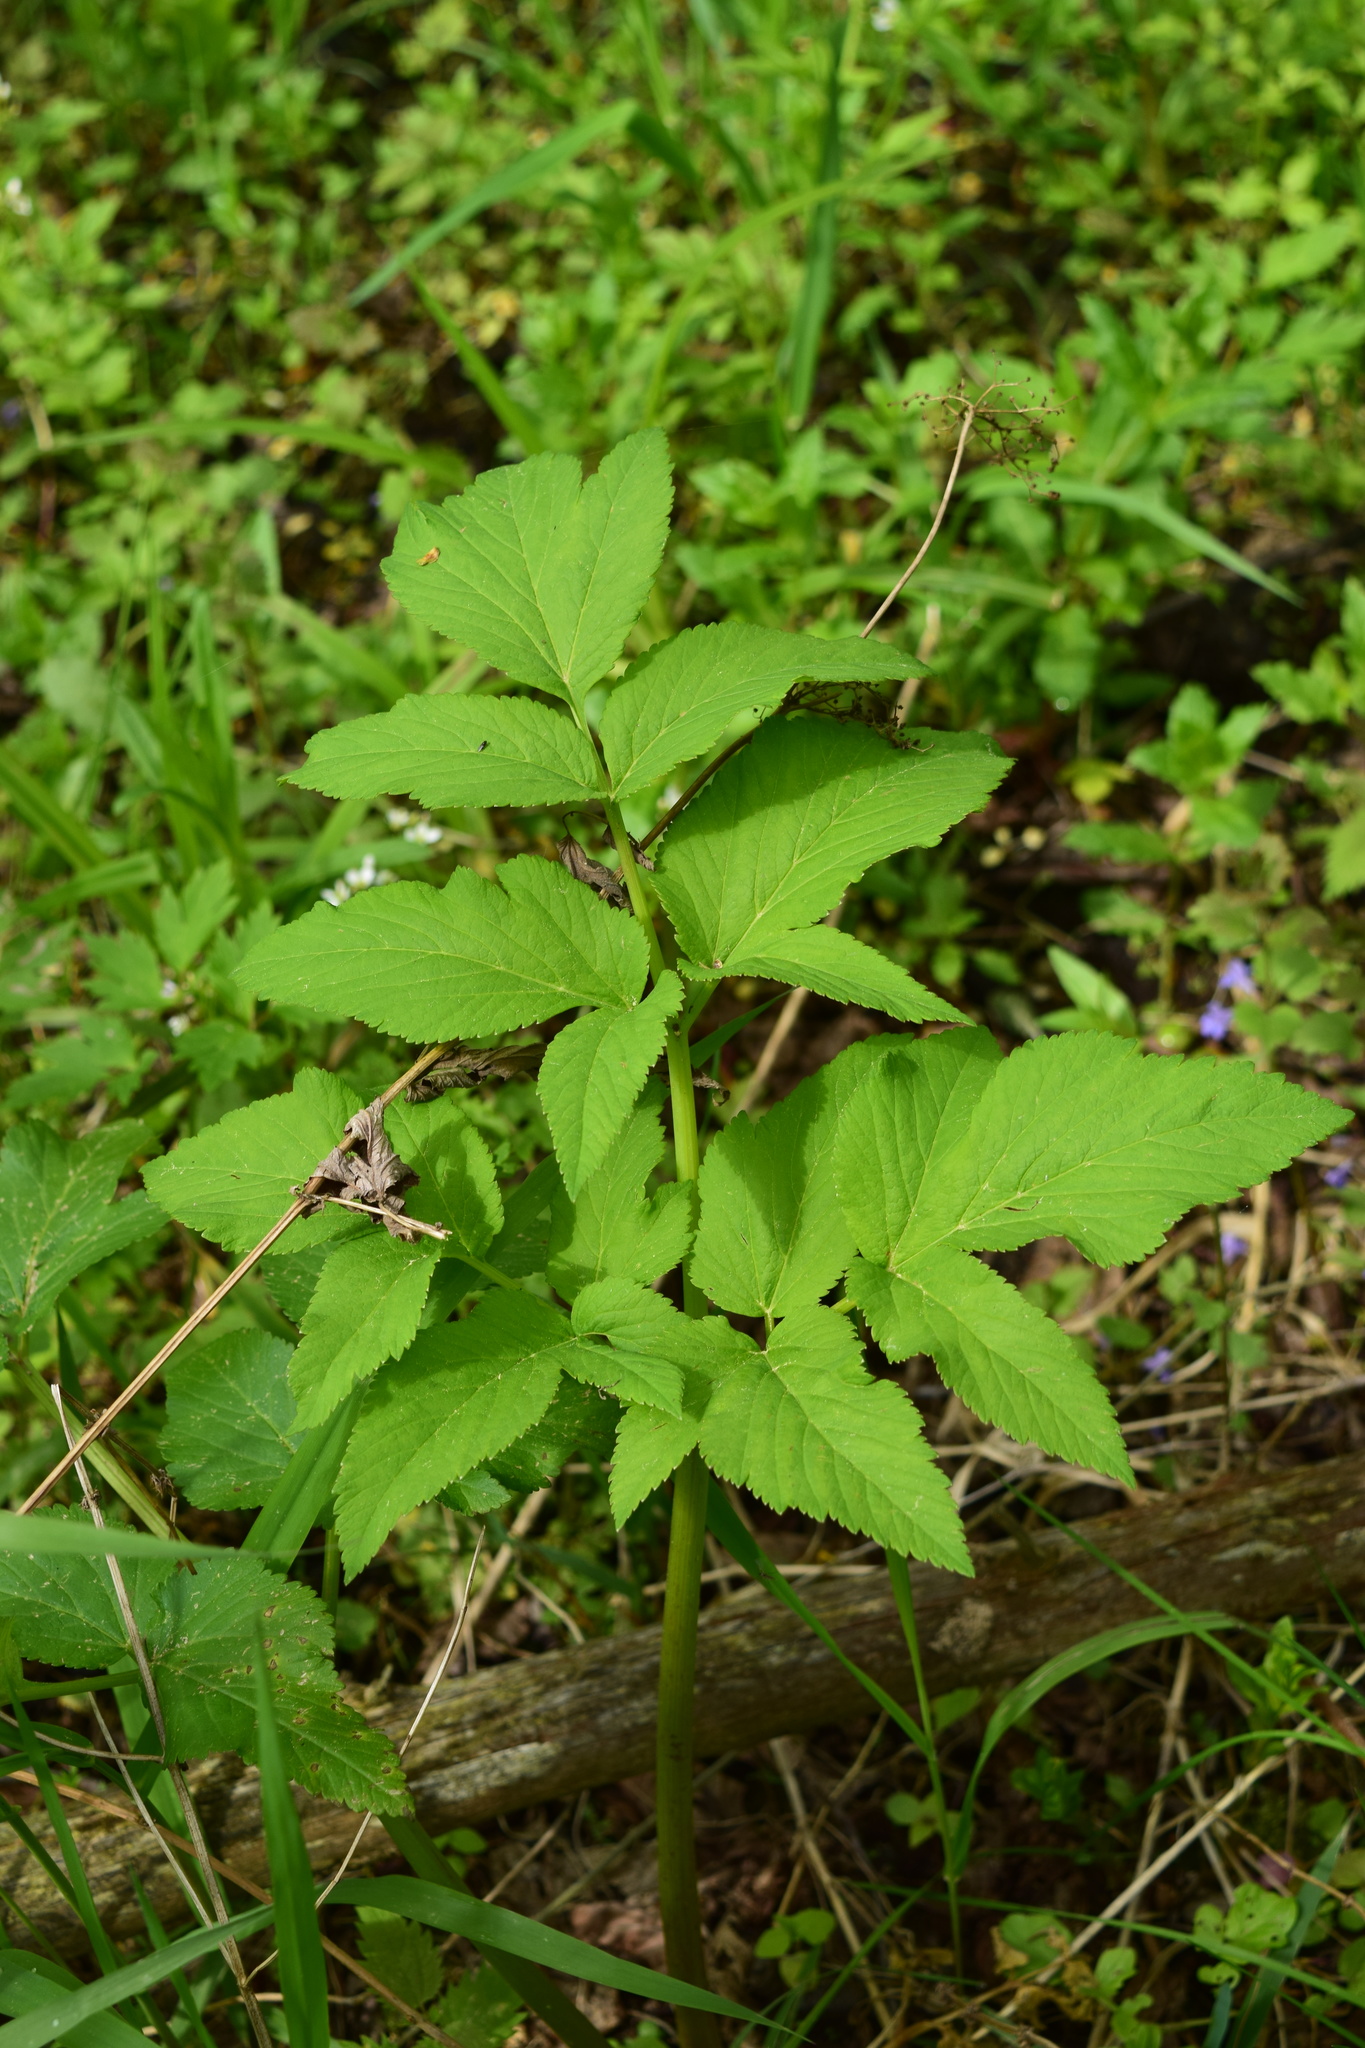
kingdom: Plantae
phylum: Tracheophyta
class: Magnoliopsida
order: Apiales
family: Apiaceae
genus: Angelica
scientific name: Angelica archangelica
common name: Garden angelica
